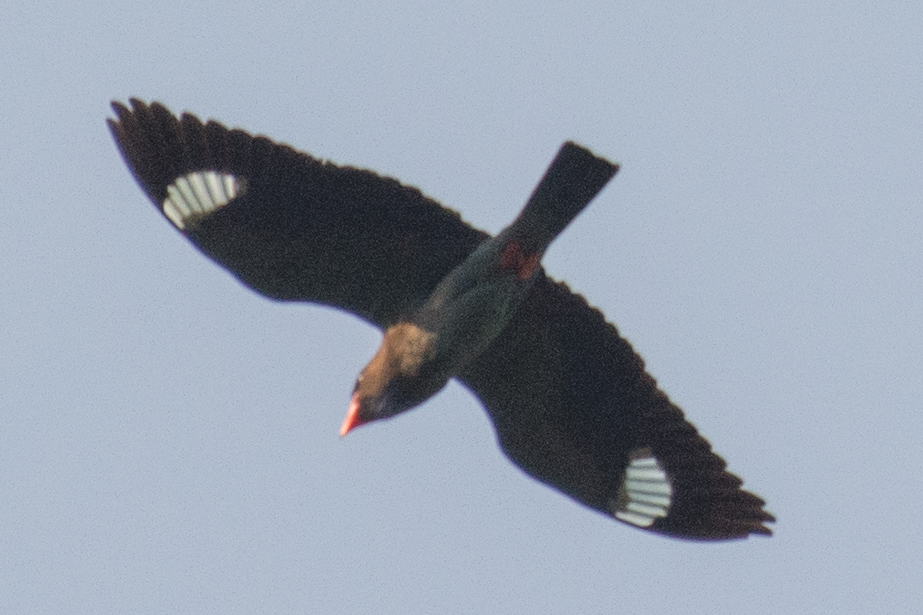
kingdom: Animalia
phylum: Chordata
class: Aves
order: Coraciiformes
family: Coraciidae
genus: Eurystomus
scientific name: Eurystomus orientalis
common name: Oriental dollarbird
